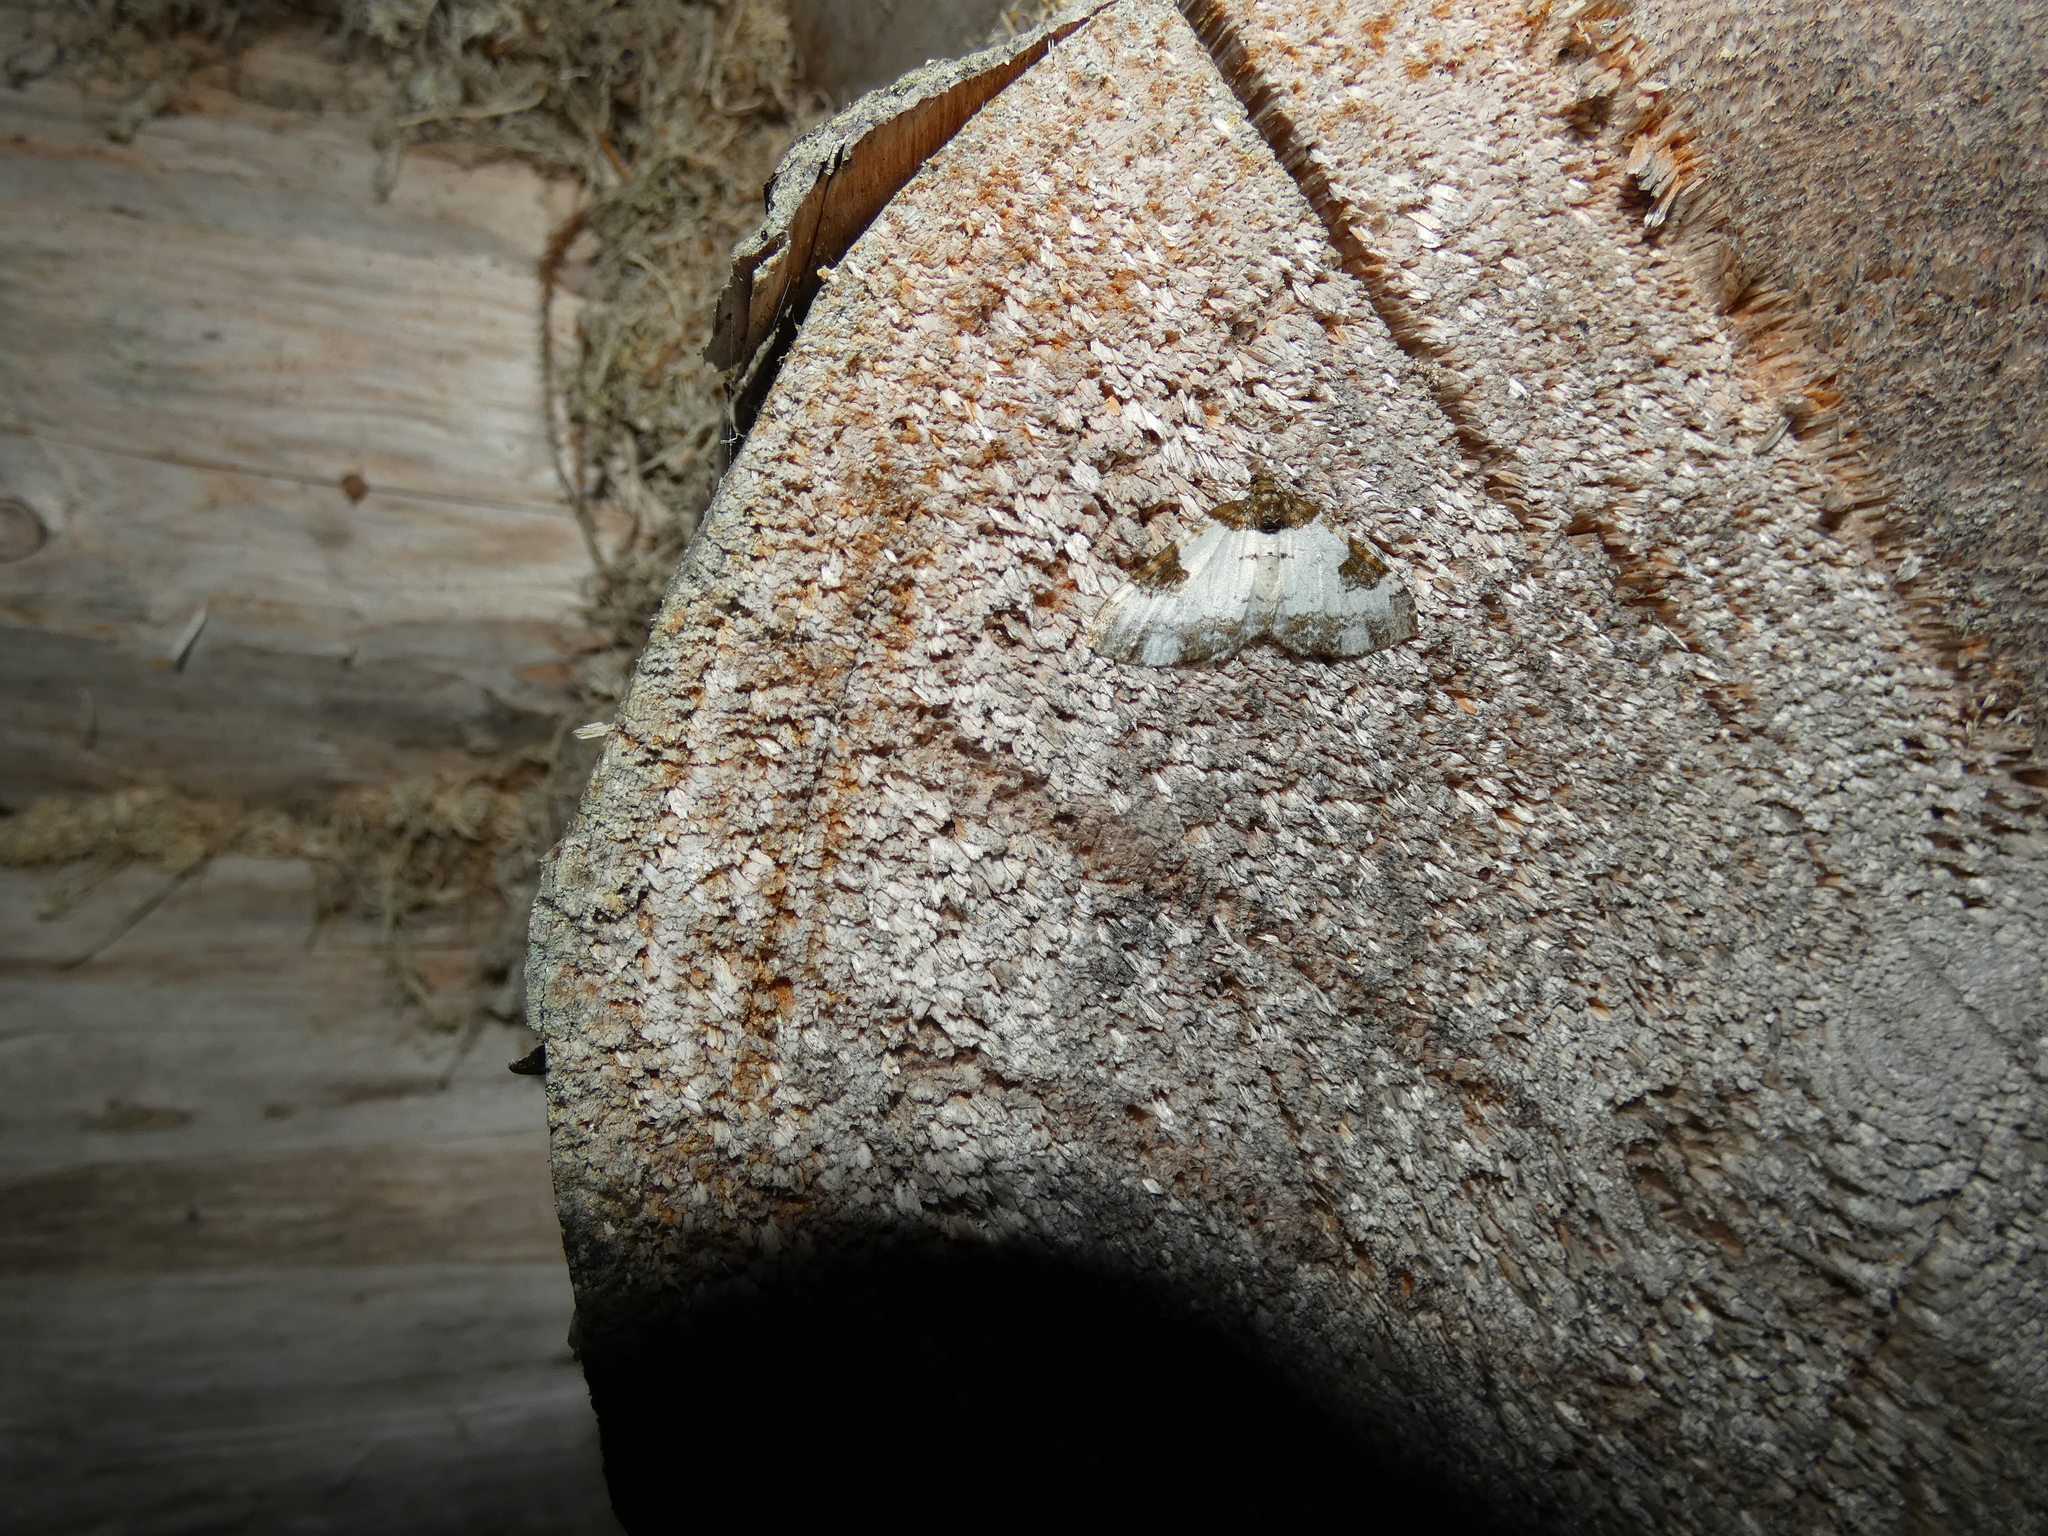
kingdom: Animalia
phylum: Arthropoda
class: Insecta
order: Lepidoptera
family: Geometridae
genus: Melanthia
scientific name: Melanthia procellata
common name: Pretty chalk carpet
